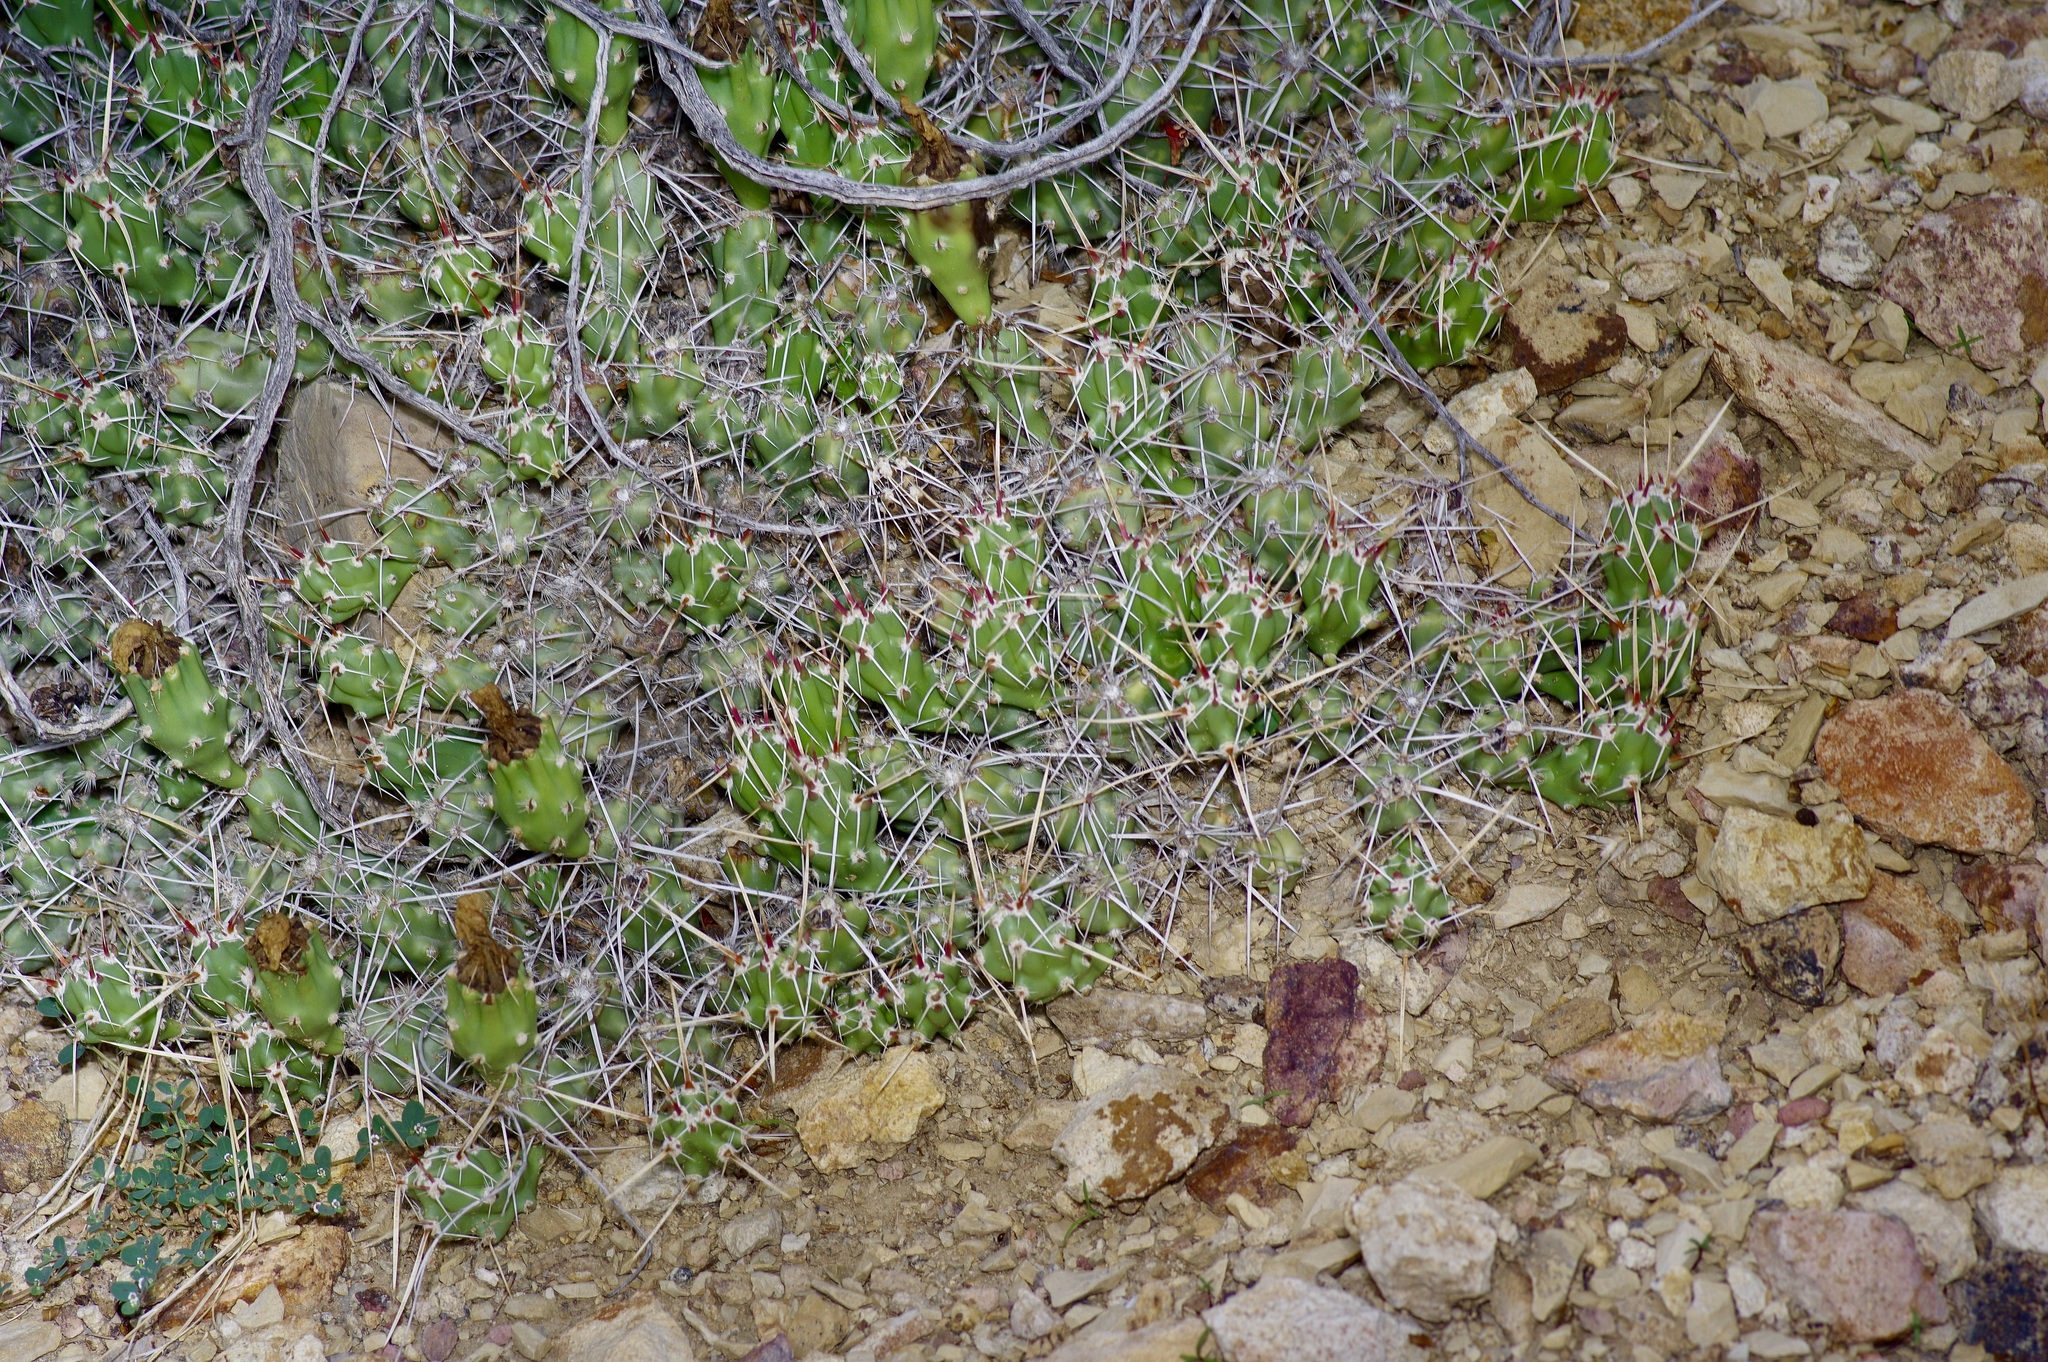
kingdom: Plantae
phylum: Tracheophyta
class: Magnoliopsida
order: Caryophyllales
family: Cactaceae
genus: Grusonia
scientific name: Grusonia aggeria
